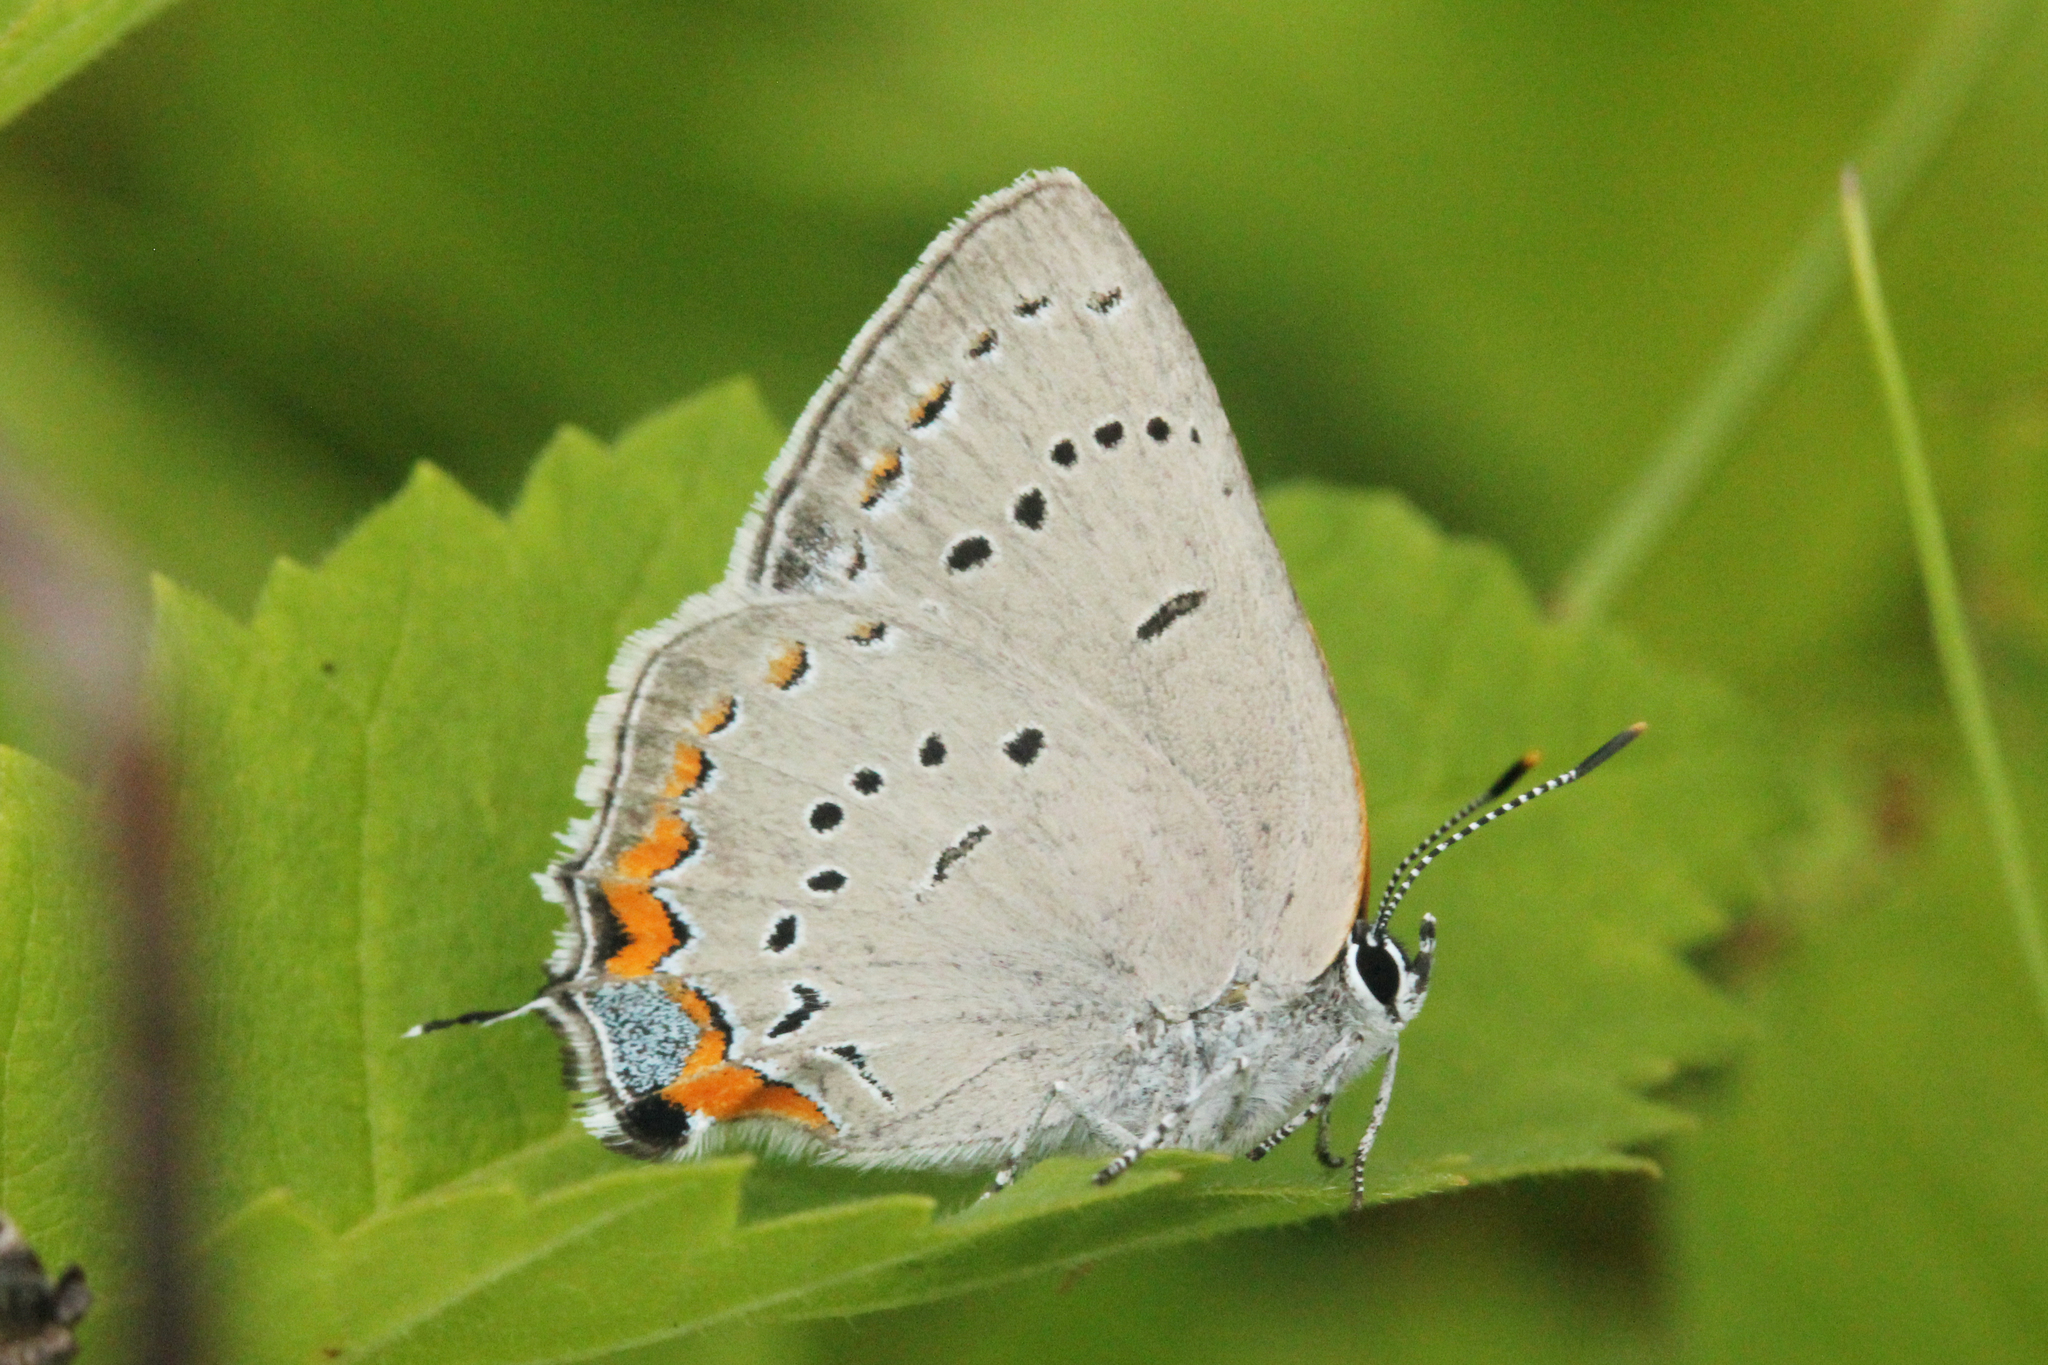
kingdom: Animalia
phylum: Arthropoda
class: Insecta
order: Lepidoptera
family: Lycaenidae
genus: Strymon
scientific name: Strymon acadica
